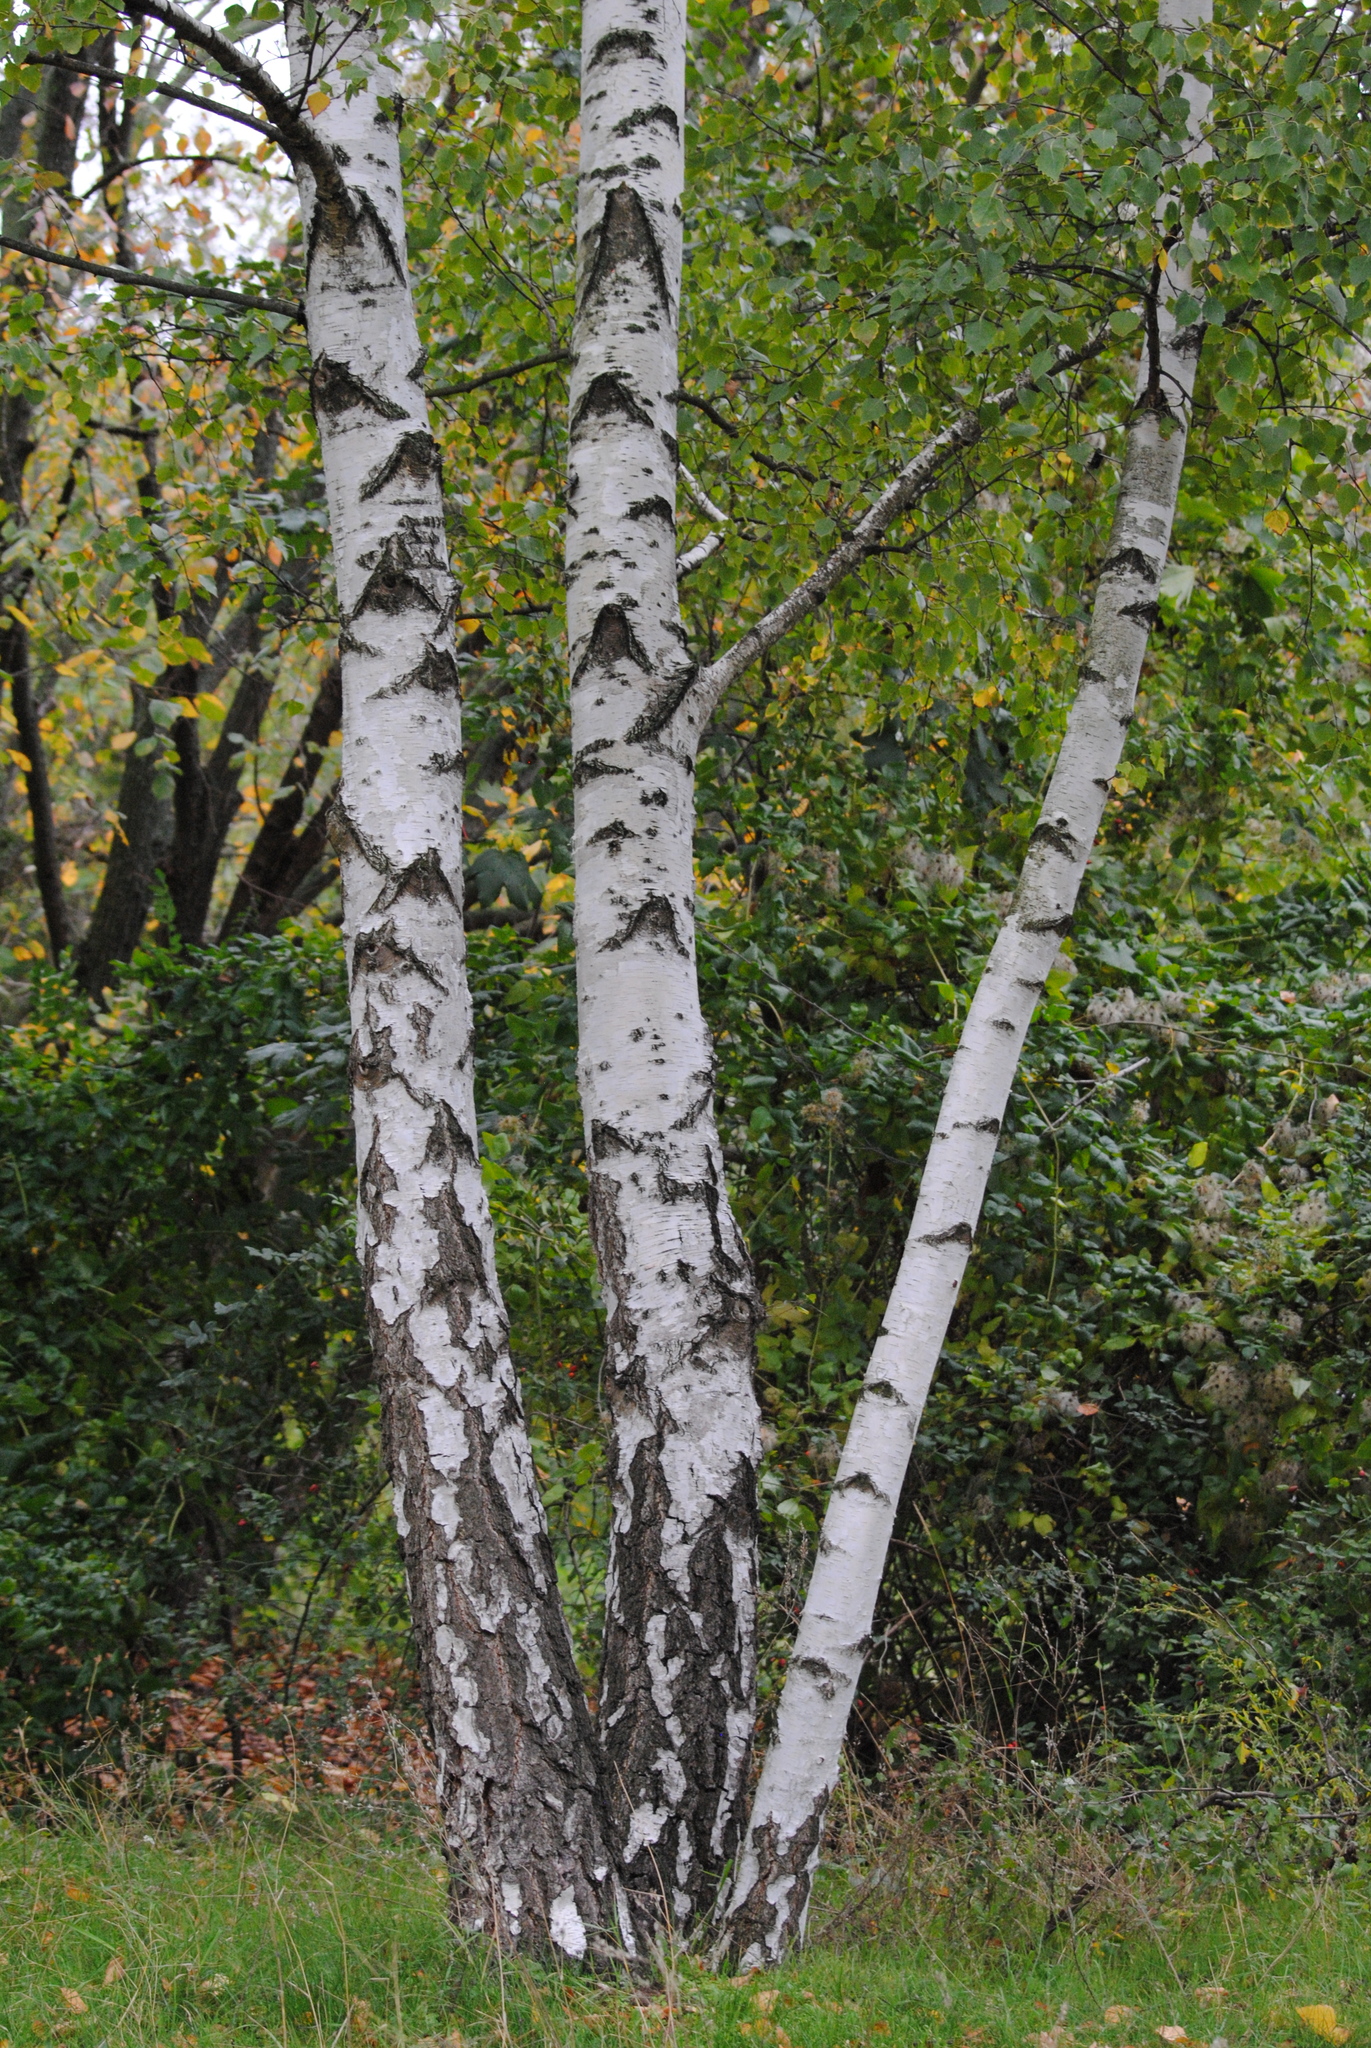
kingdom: Plantae
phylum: Tracheophyta
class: Magnoliopsida
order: Fagales
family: Betulaceae
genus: Betula
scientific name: Betula pendula
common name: Silver birch
